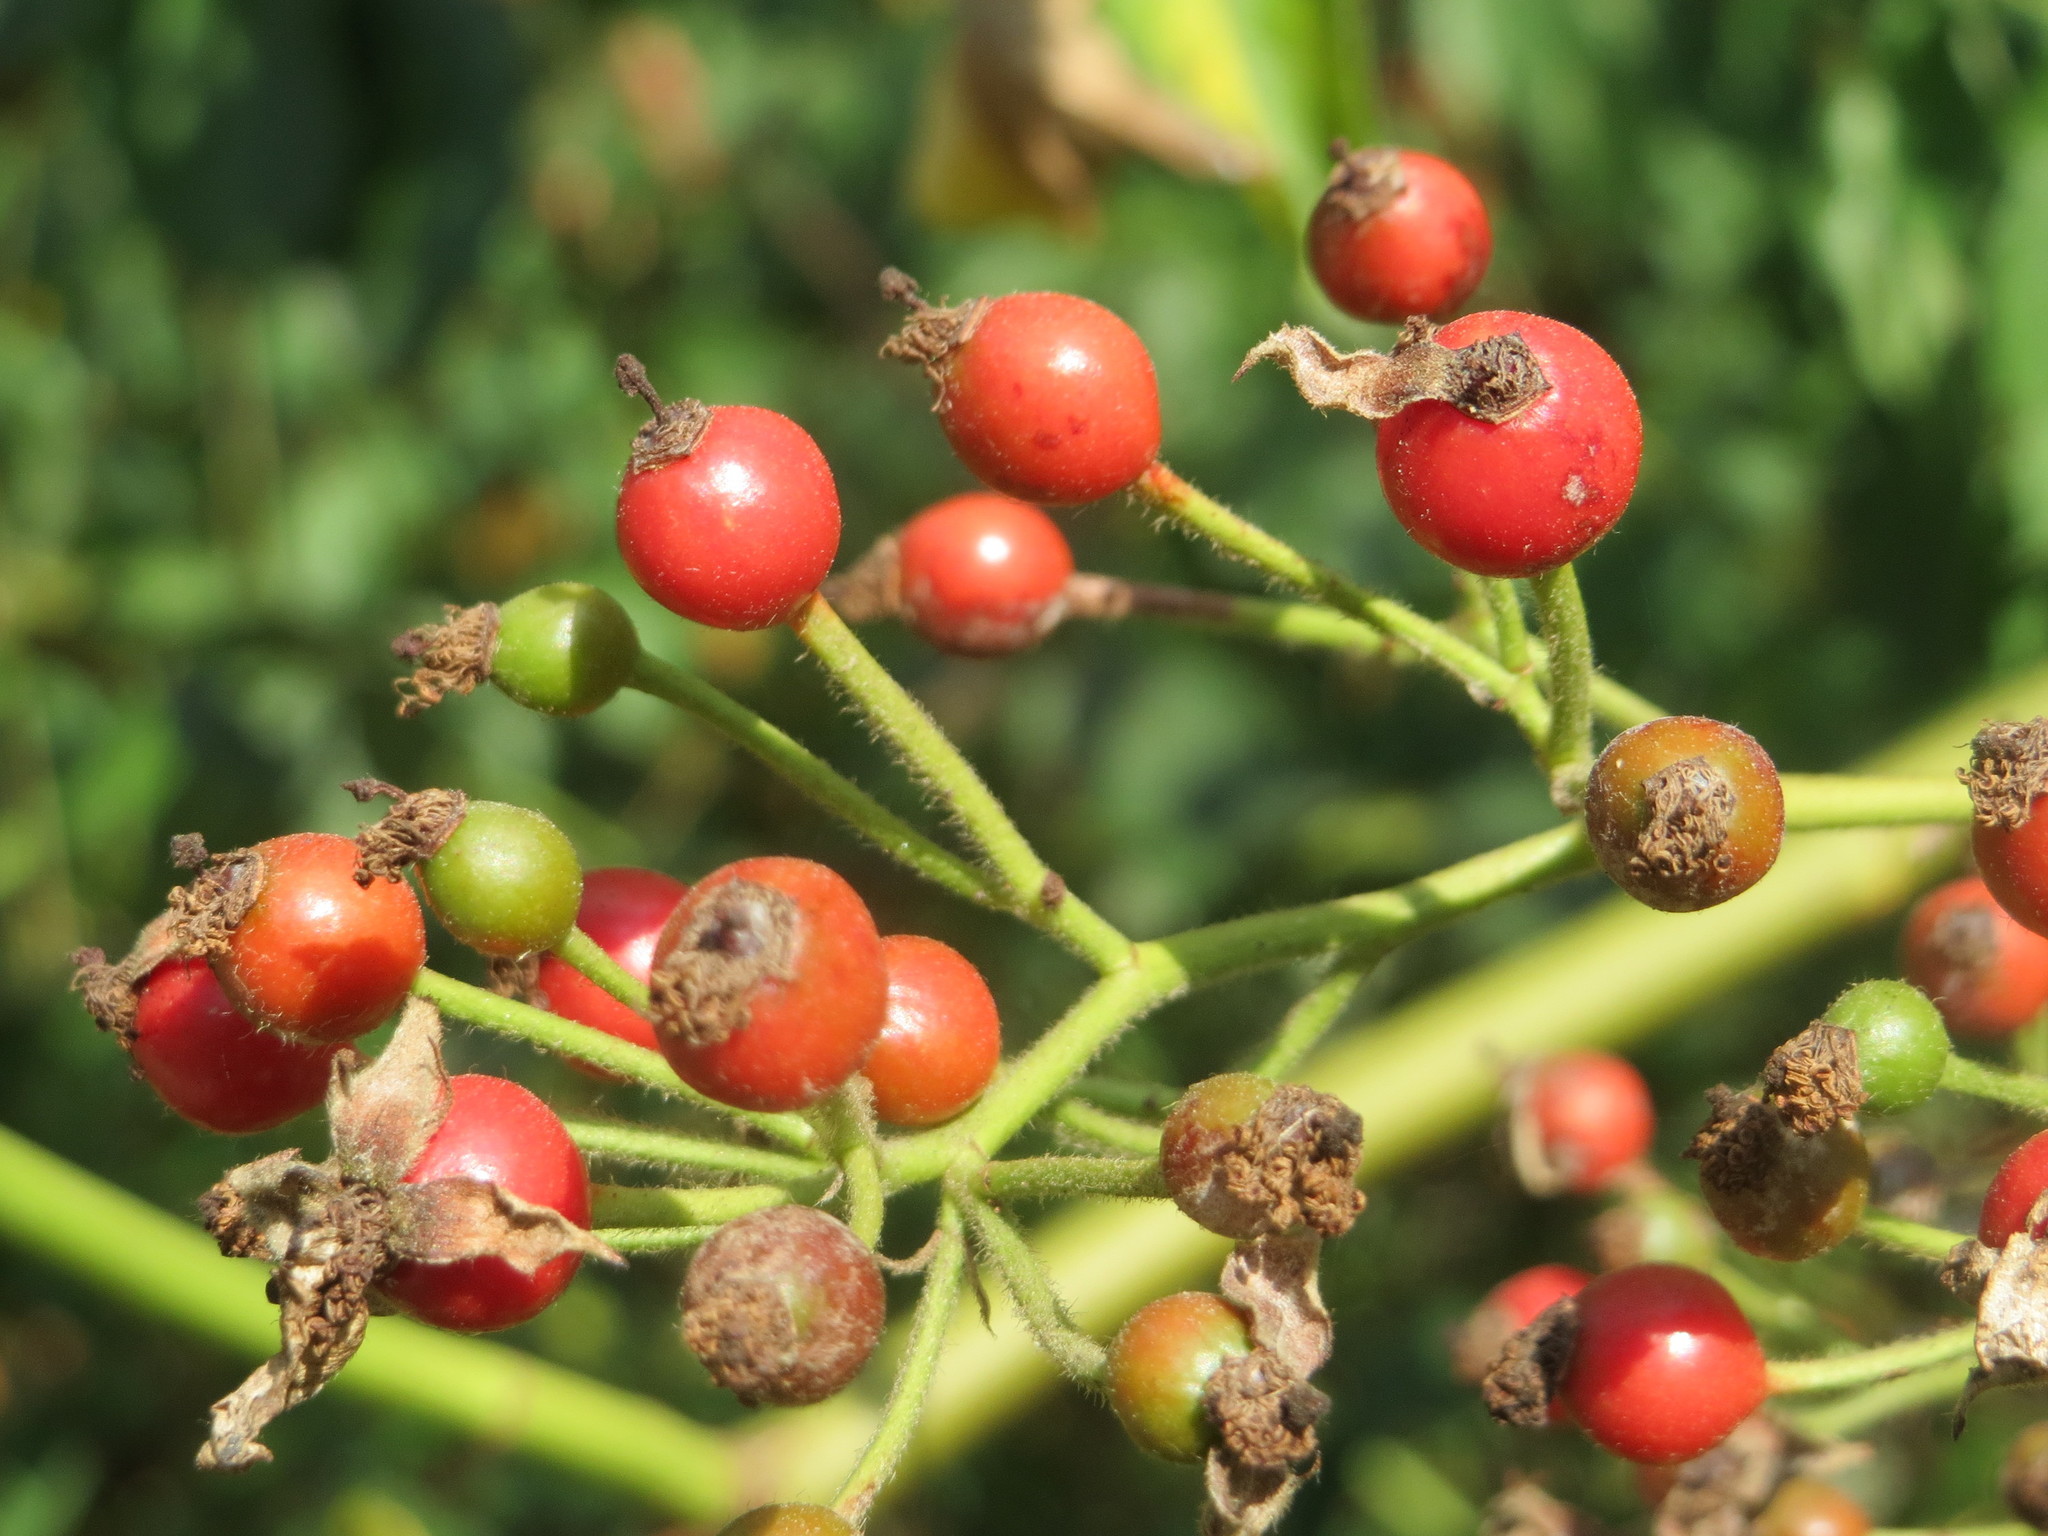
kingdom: Plantae
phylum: Tracheophyta
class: Magnoliopsida
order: Rosales
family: Rosaceae
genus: Rosa
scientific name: Rosa multiflora
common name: Multiflora rose
